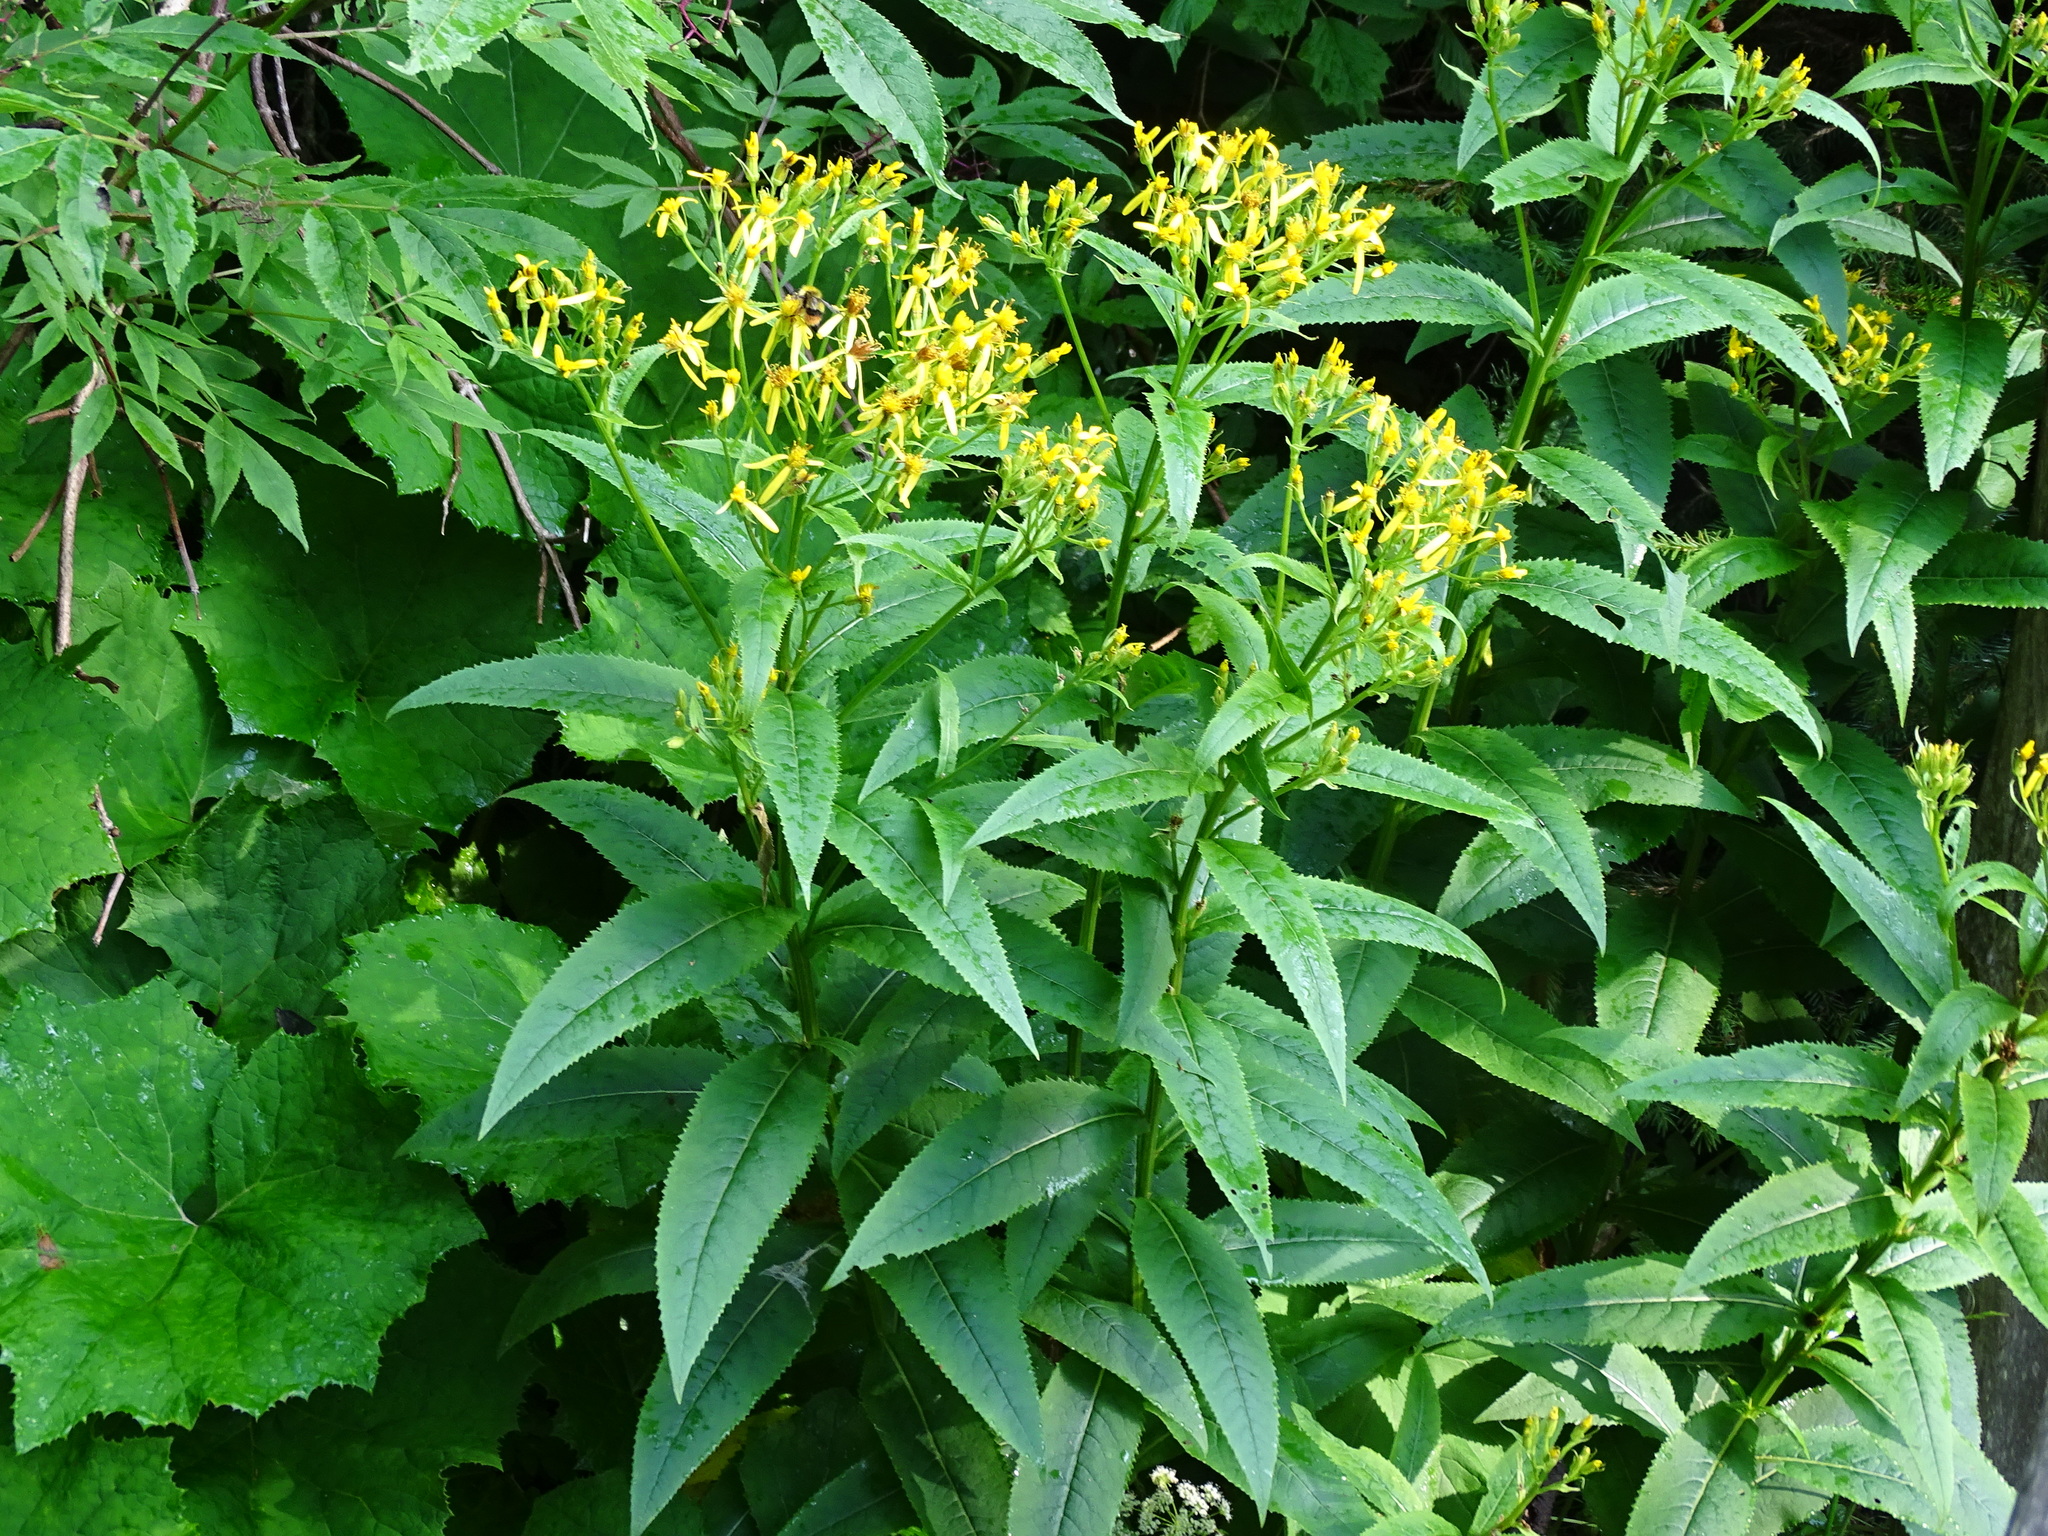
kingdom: Plantae
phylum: Tracheophyta
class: Magnoliopsida
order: Asterales
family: Asteraceae
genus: Senecio
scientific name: Senecio hercynicus
